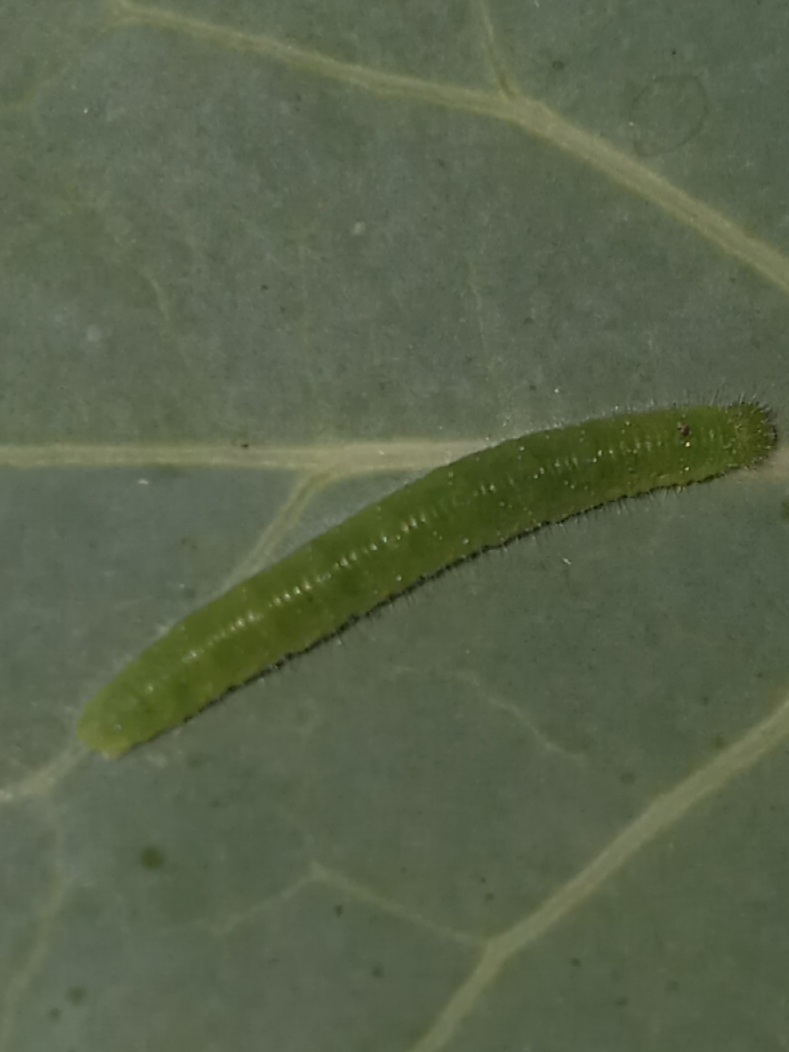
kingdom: Animalia
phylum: Arthropoda
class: Insecta
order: Lepidoptera
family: Pieridae
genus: Pieris
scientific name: Pieris rapae
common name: Small white
